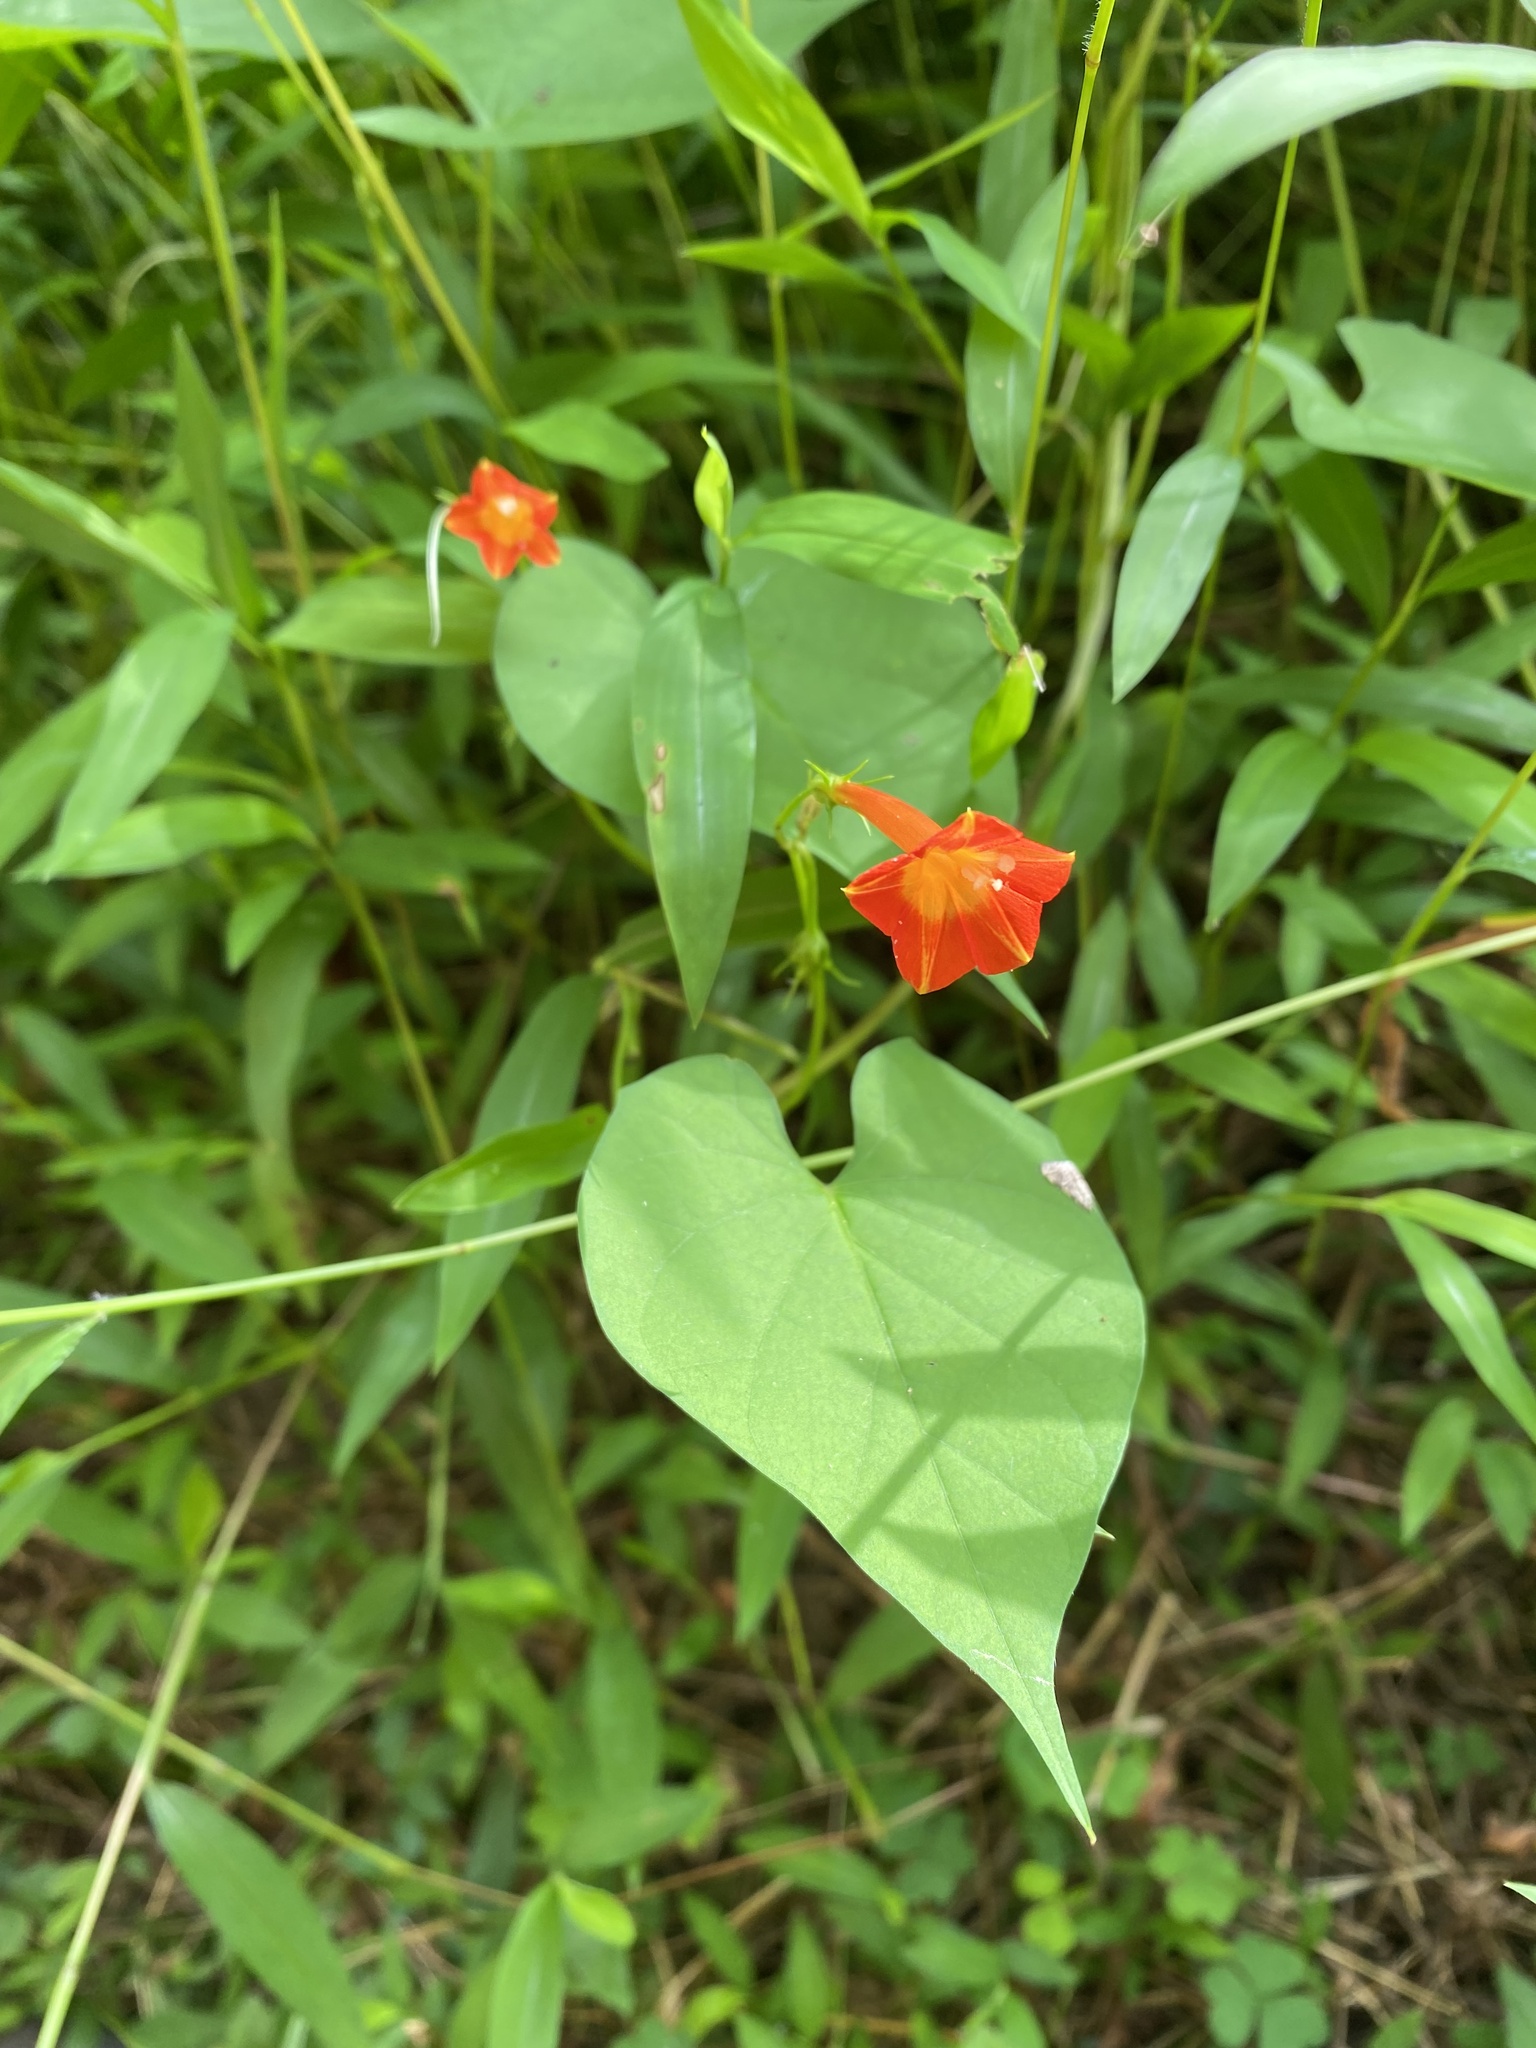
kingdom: Plantae
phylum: Tracheophyta
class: Magnoliopsida
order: Solanales
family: Convolvulaceae
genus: Ipomoea
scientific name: Ipomoea coccinea
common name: Red morning-glory
